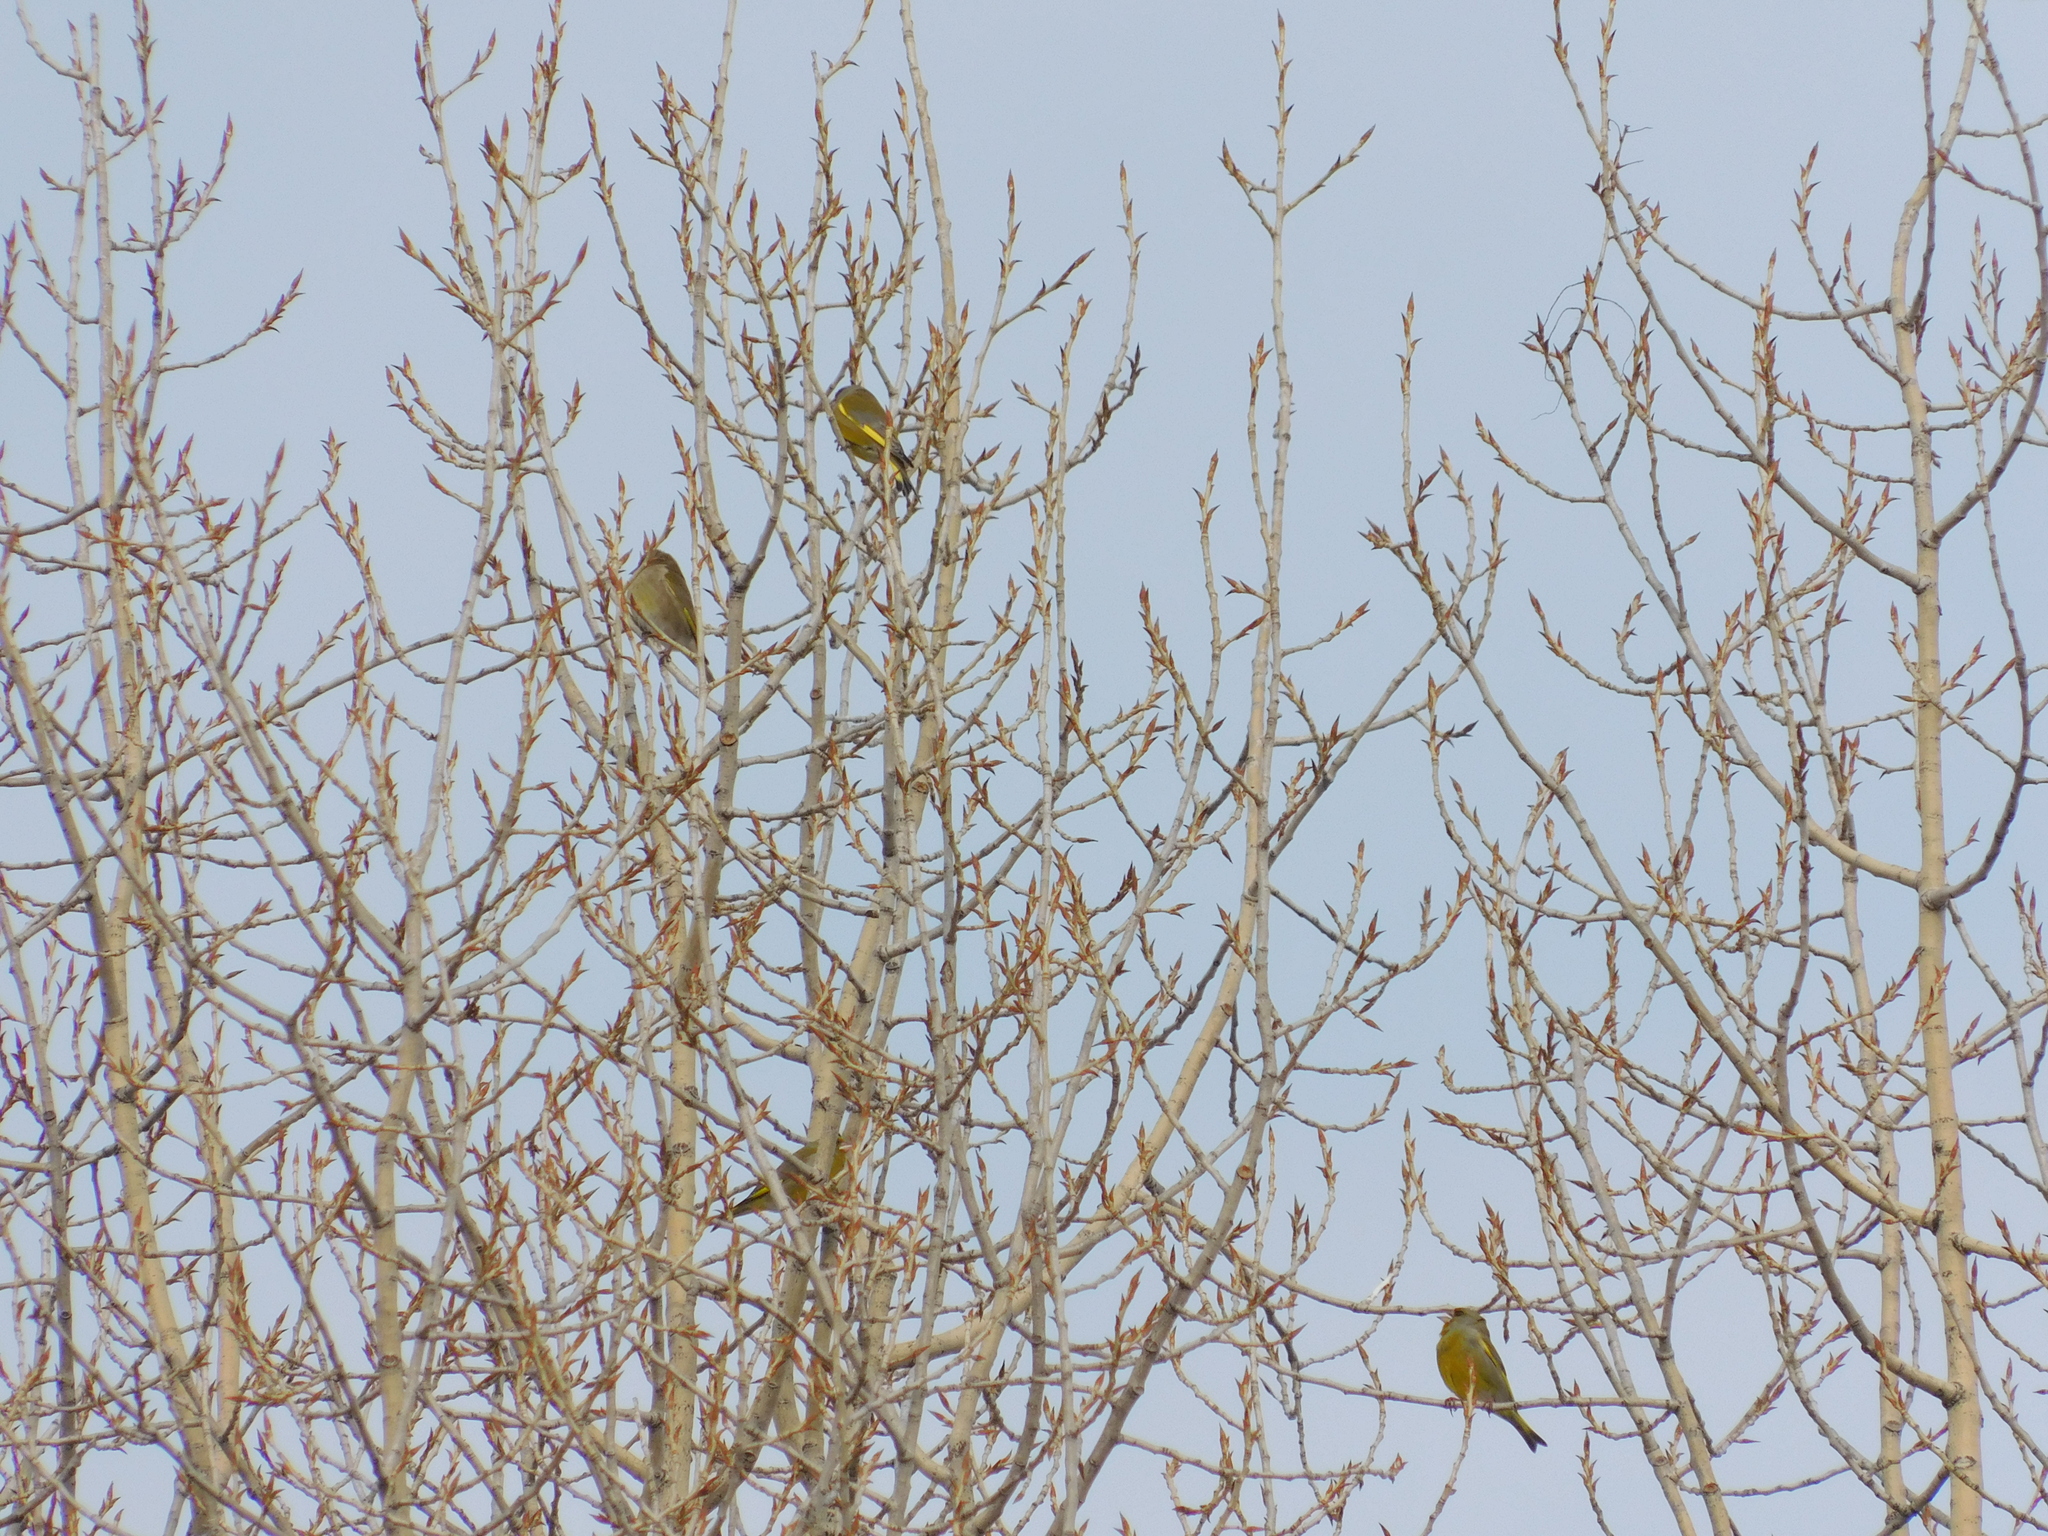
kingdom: Plantae
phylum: Tracheophyta
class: Liliopsida
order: Poales
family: Poaceae
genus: Chloris
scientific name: Chloris chloris
